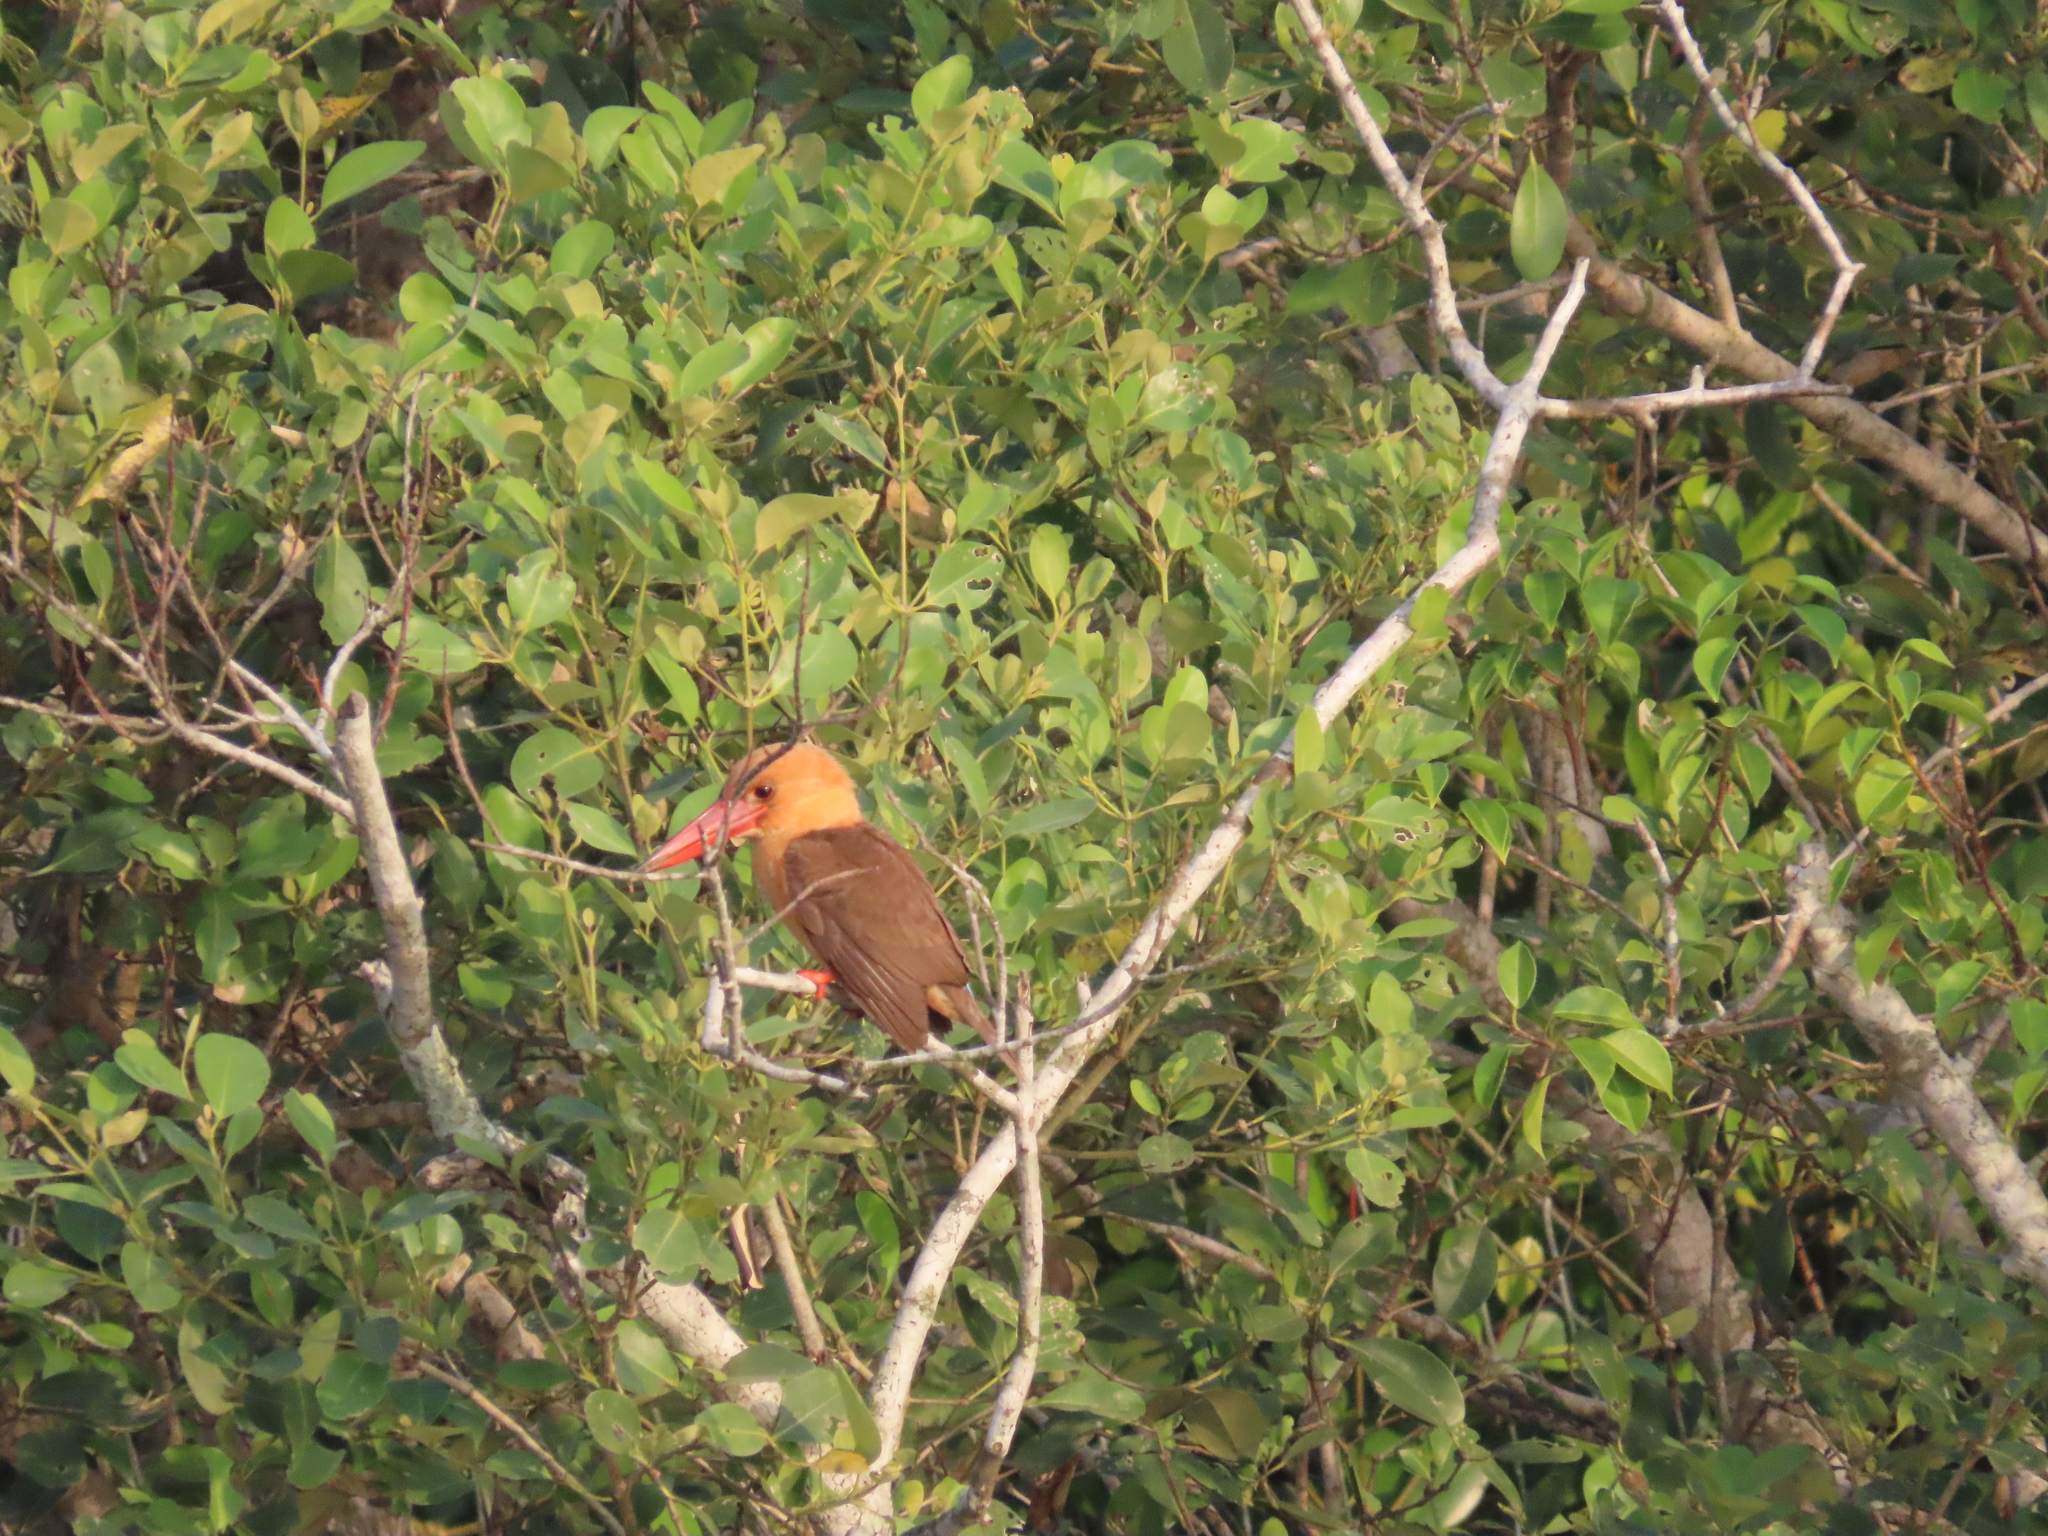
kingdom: Animalia
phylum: Chordata
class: Aves
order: Coraciiformes
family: Alcedinidae
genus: Pelargopsis
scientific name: Pelargopsis amauroptera
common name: Brown-winged kingfisher
